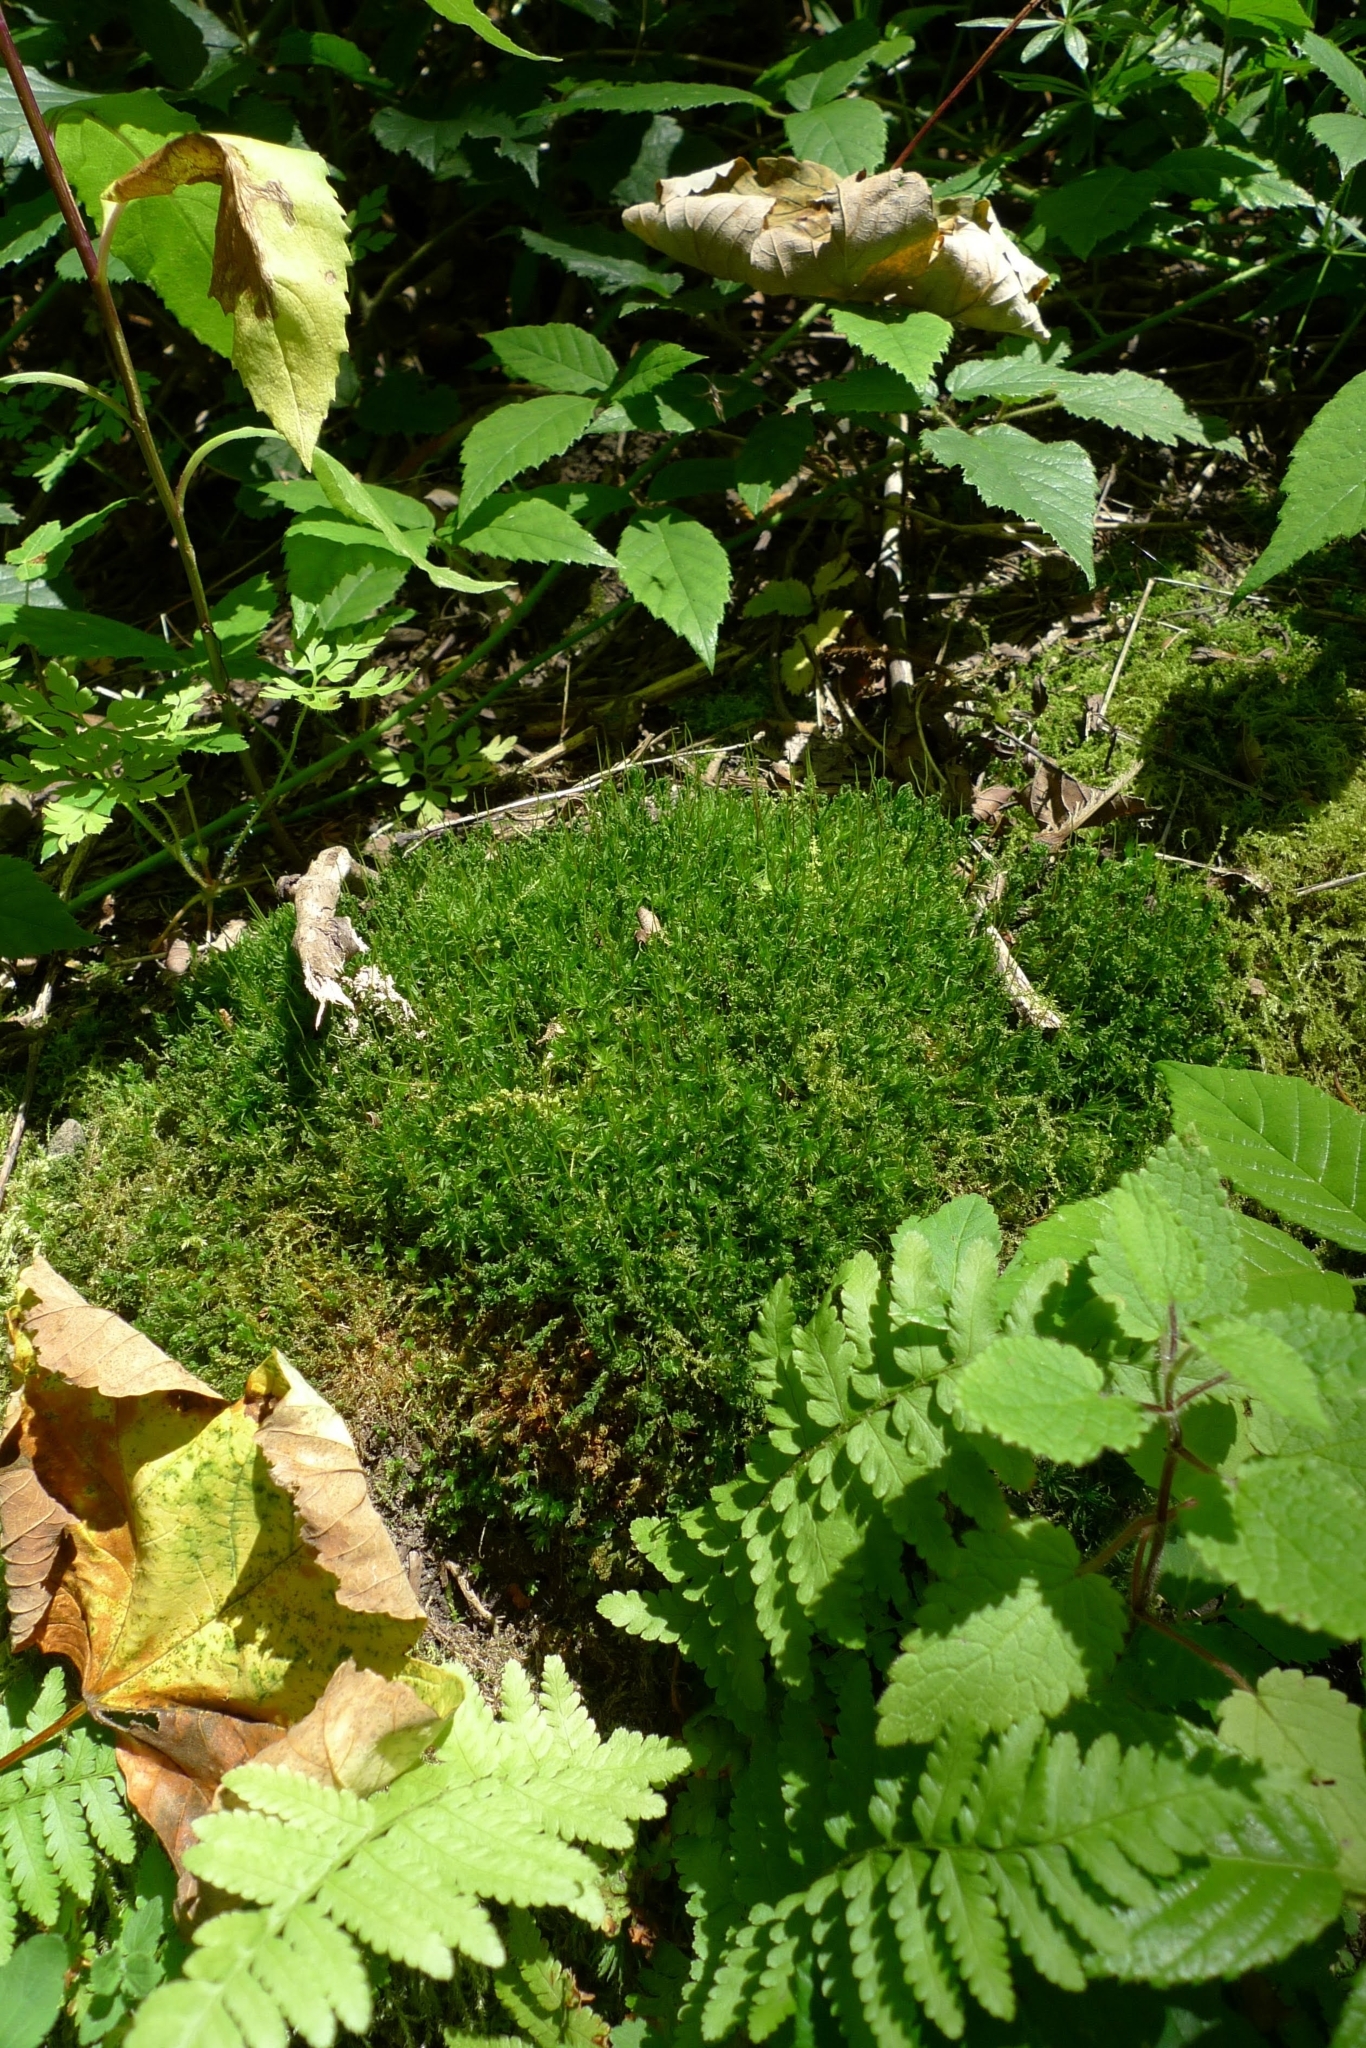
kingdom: Plantae
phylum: Bryophyta
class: Polytrichopsida
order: Polytrichales
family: Polytrichaceae
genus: Atrichum
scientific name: Atrichum undulatum
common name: Common smoothcap
